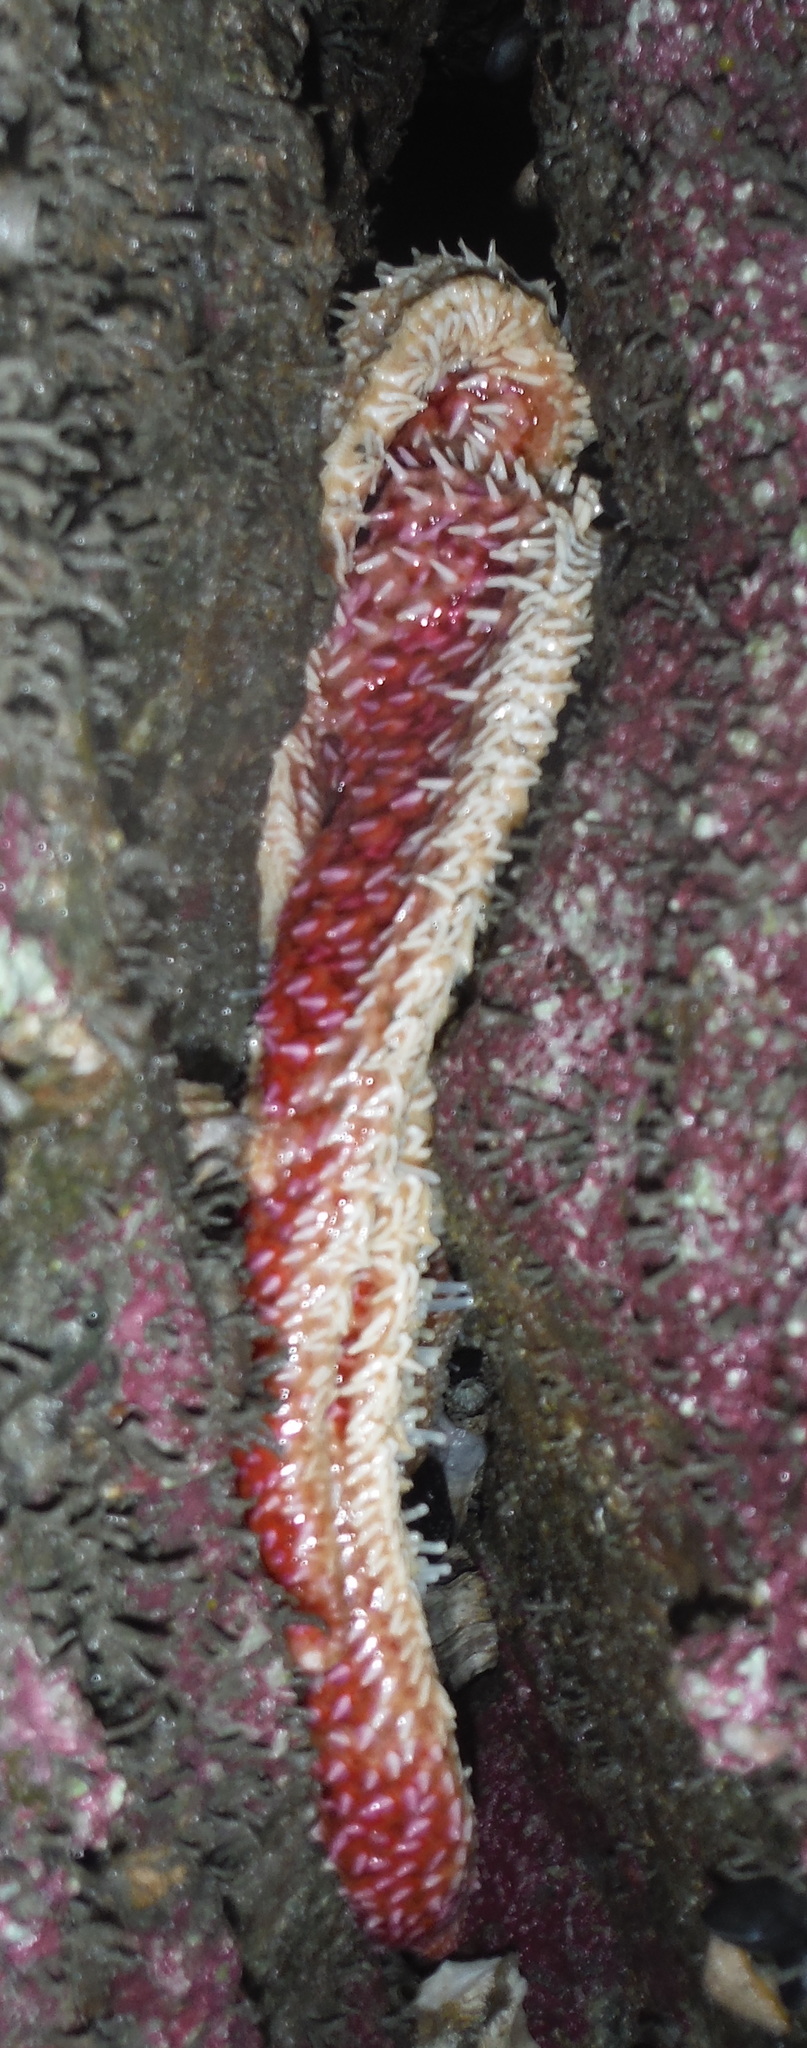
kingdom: Animalia
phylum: Echinodermata
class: Asteroidea
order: Forcipulatida
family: Asteriidae
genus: Orthasterias
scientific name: Orthasterias koehleri
